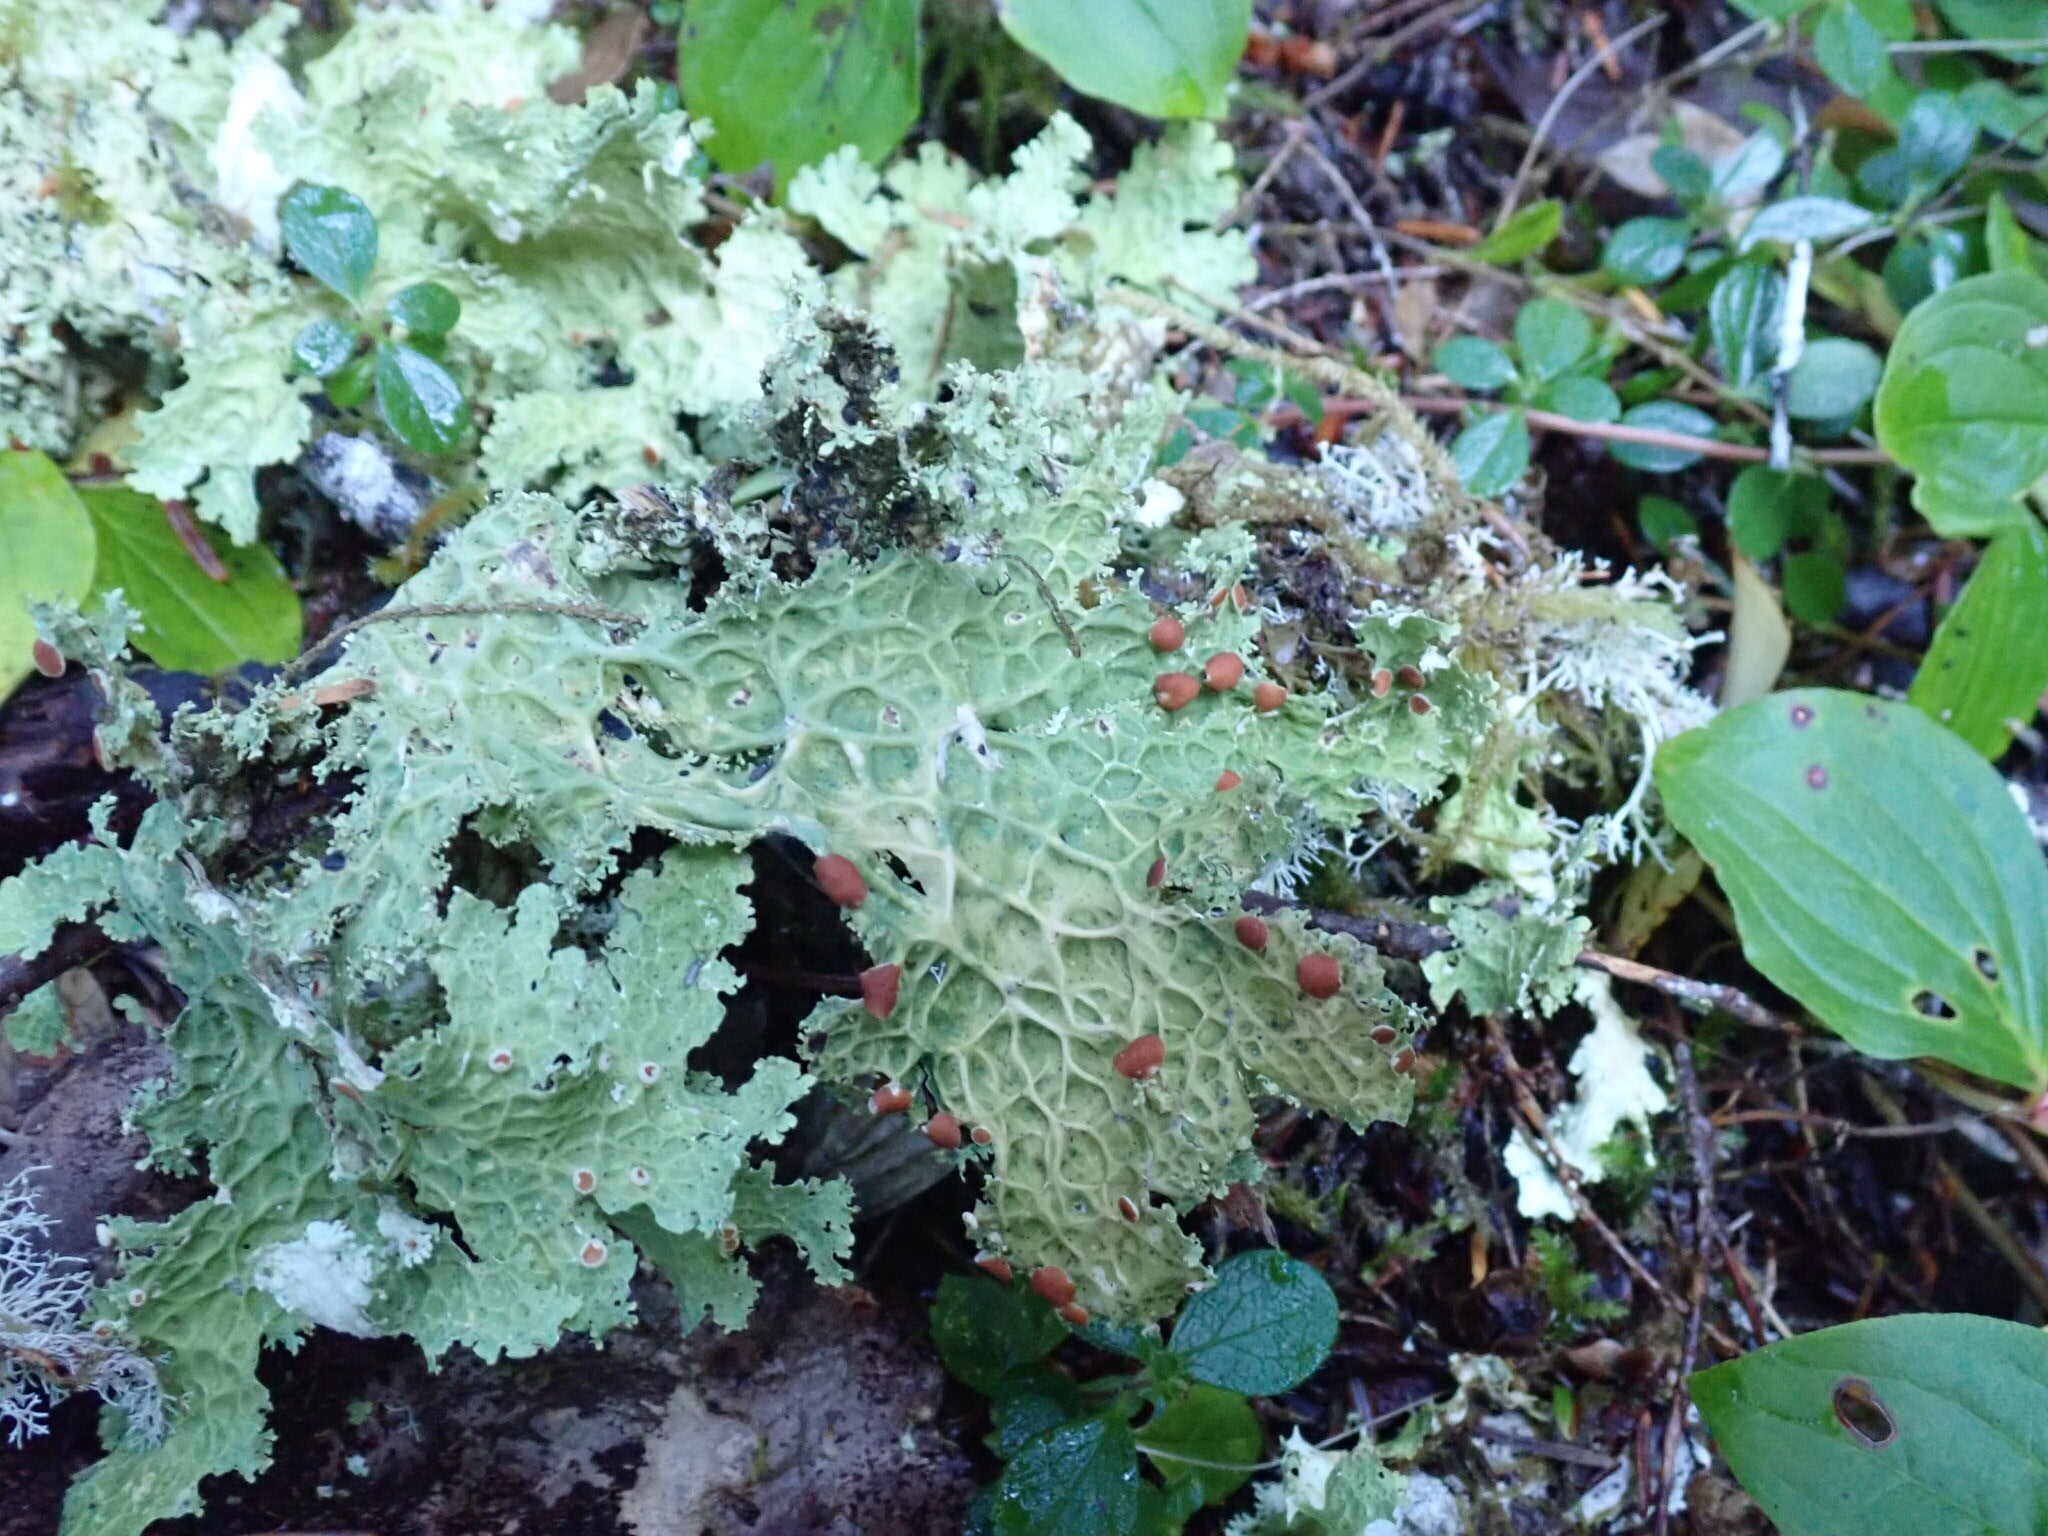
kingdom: Fungi
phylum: Ascomycota
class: Lecanoromycetes
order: Peltigerales
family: Lobariaceae
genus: Lobaria
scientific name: Lobaria oregana
